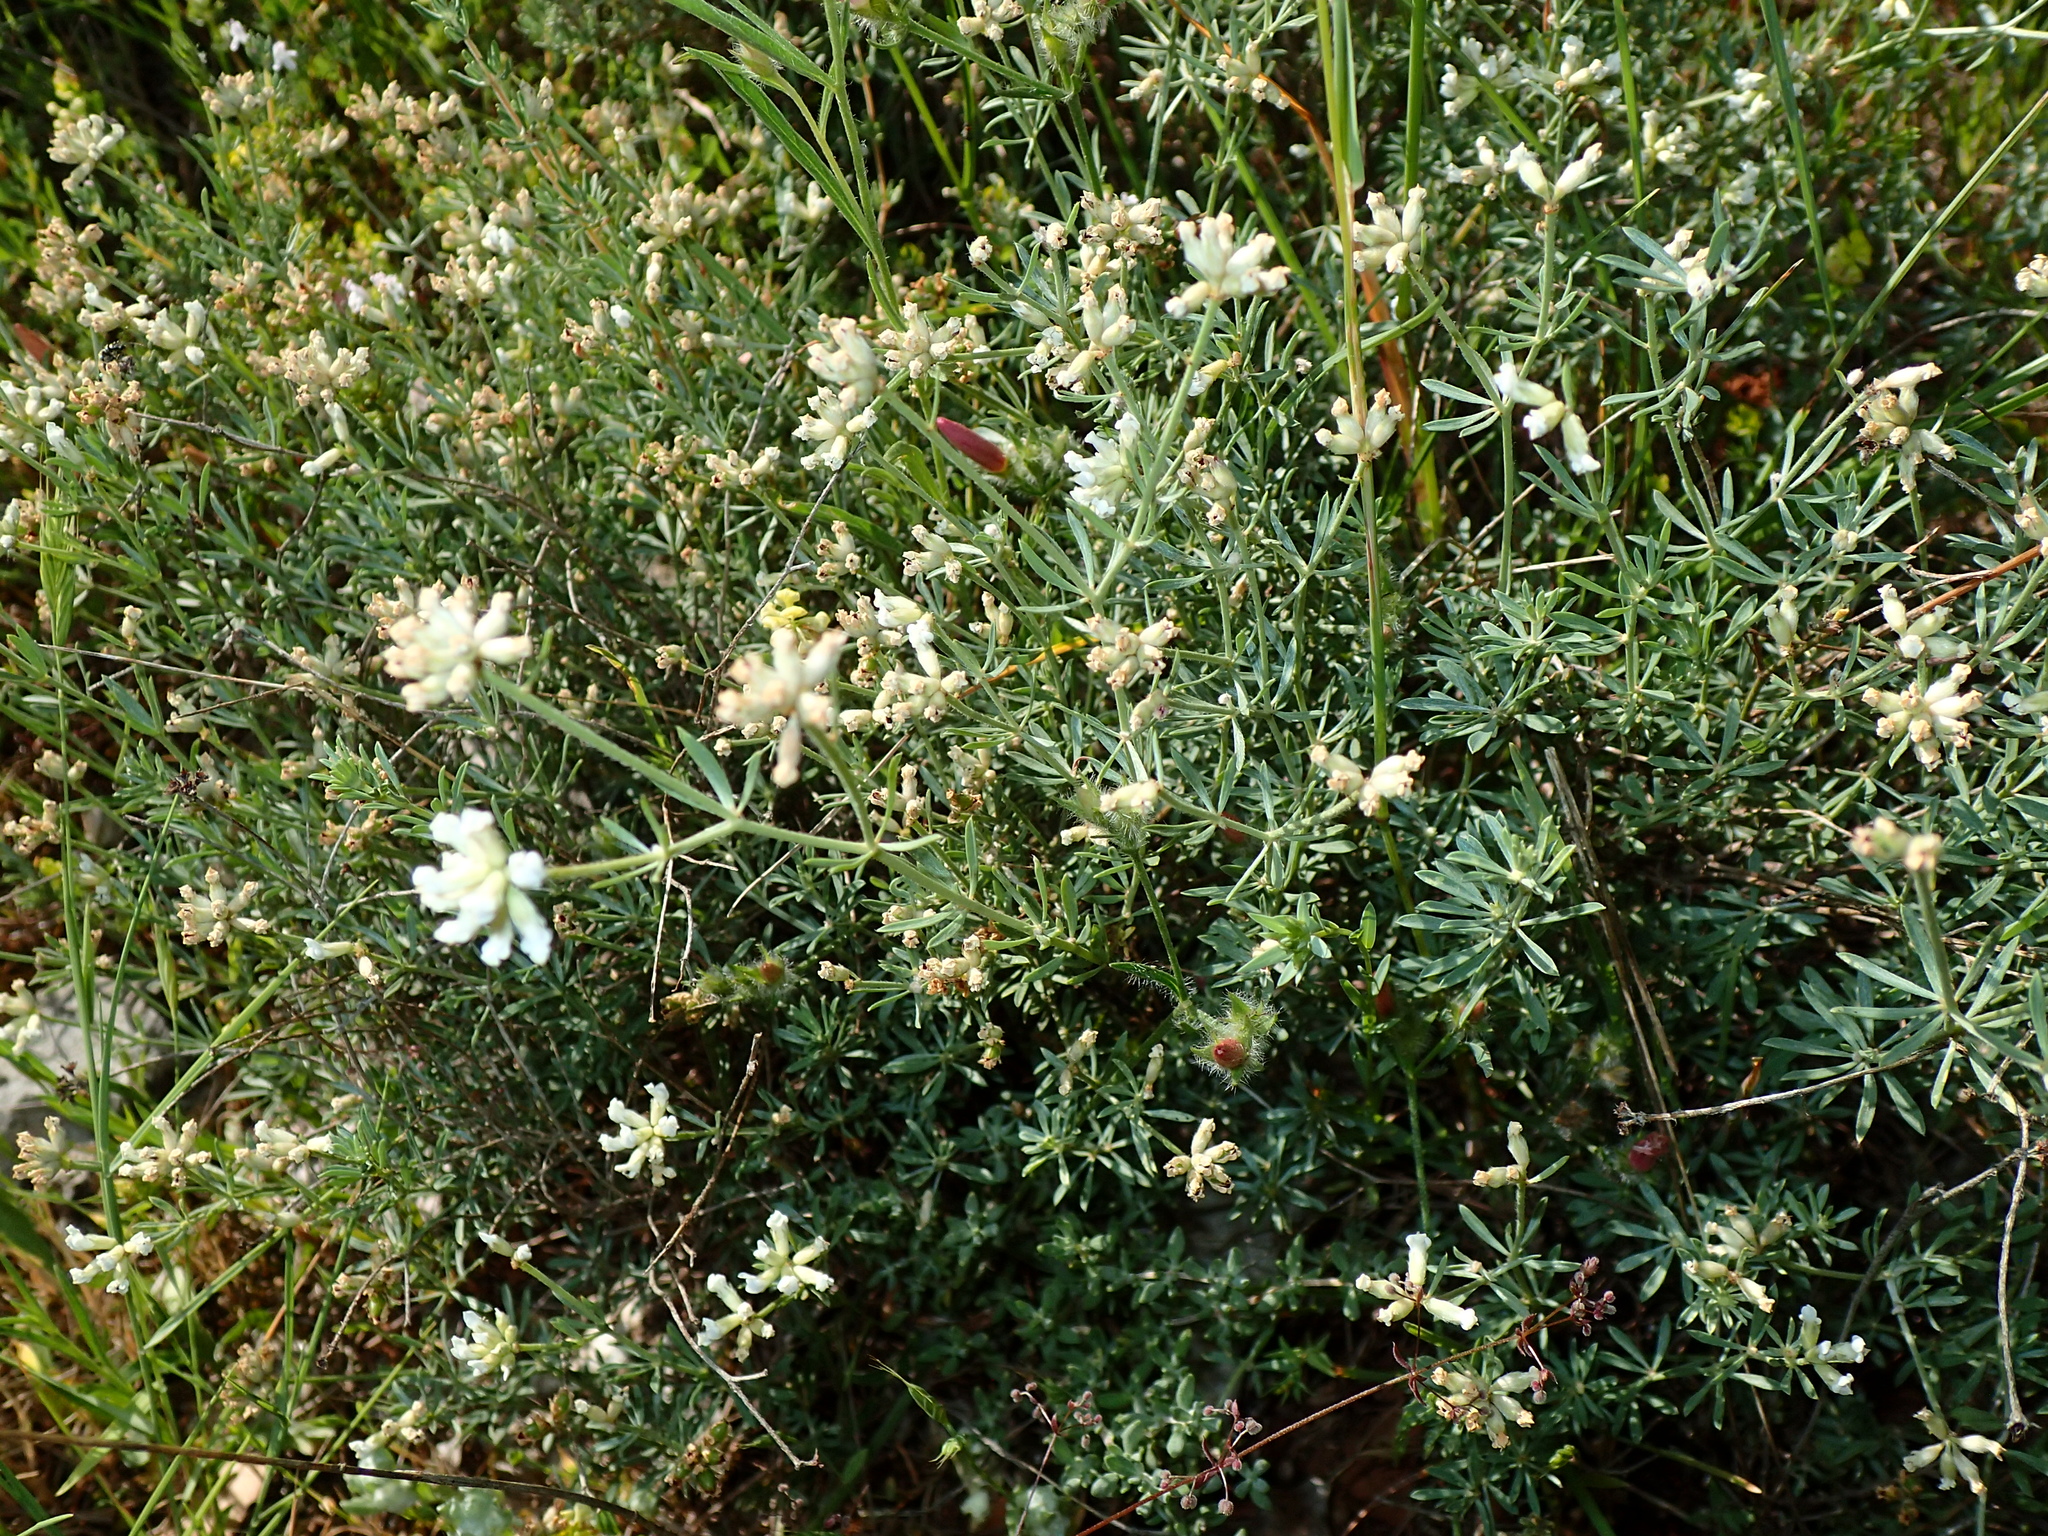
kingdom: Plantae
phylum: Tracheophyta
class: Magnoliopsida
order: Fabales
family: Fabaceae
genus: Lotus
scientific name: Lotus dorycnium
